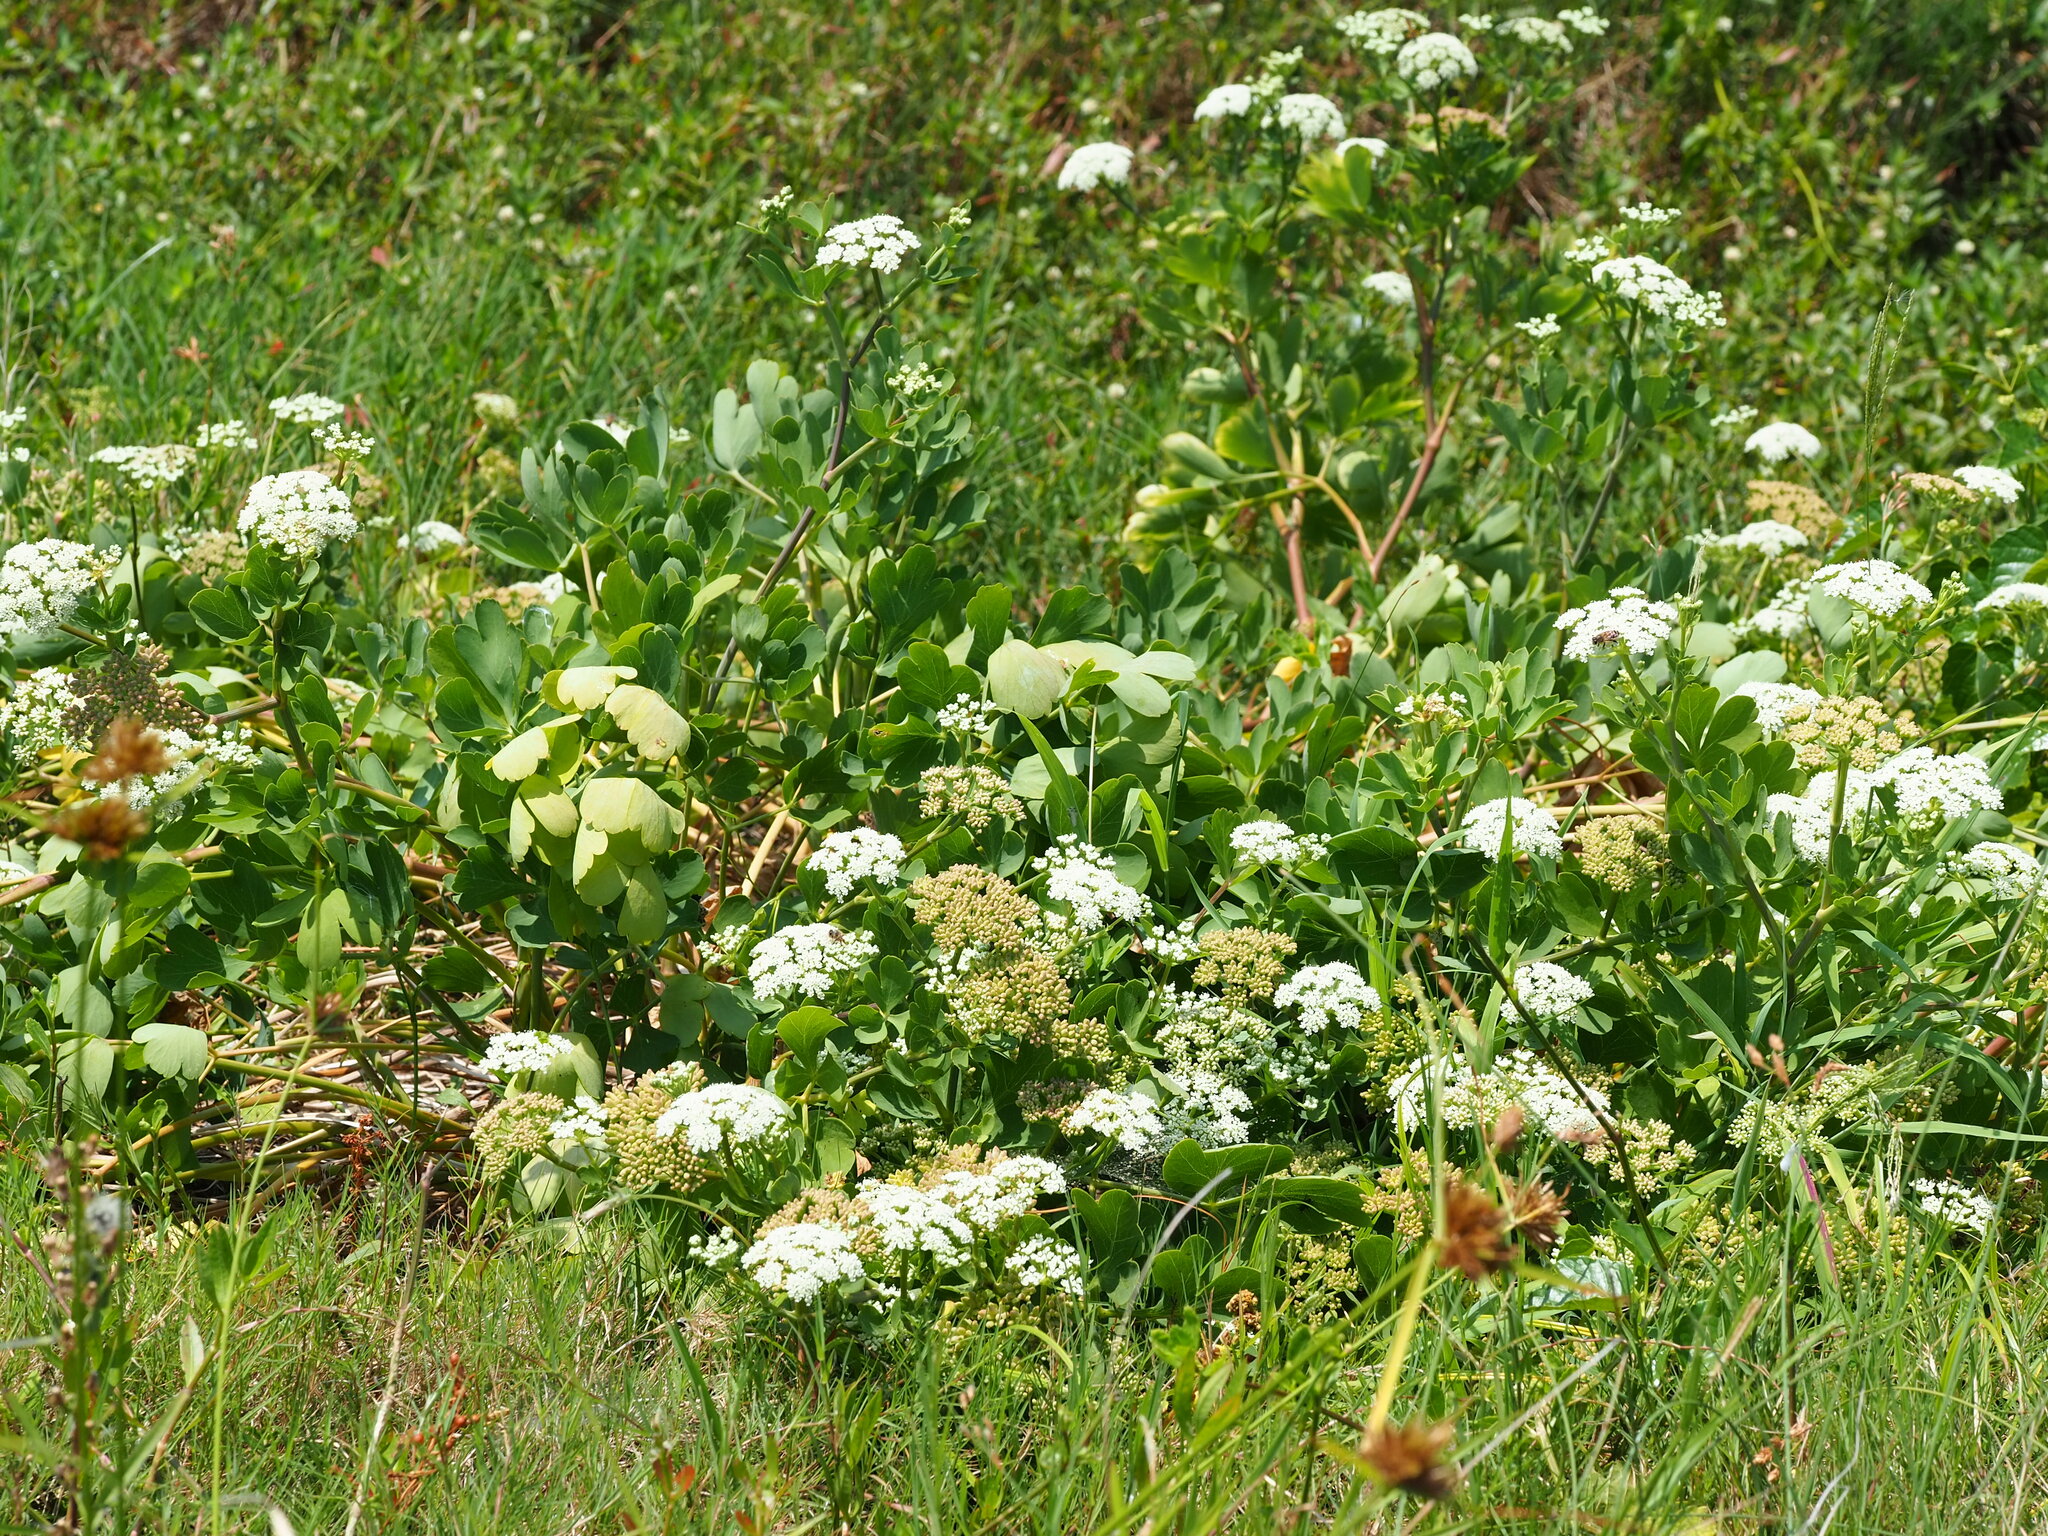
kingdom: Plantae
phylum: Tracheophyta
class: Magnoliopsida
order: Apiales
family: Apiaceae
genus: Peucedanum
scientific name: Peucedanum japonicum
